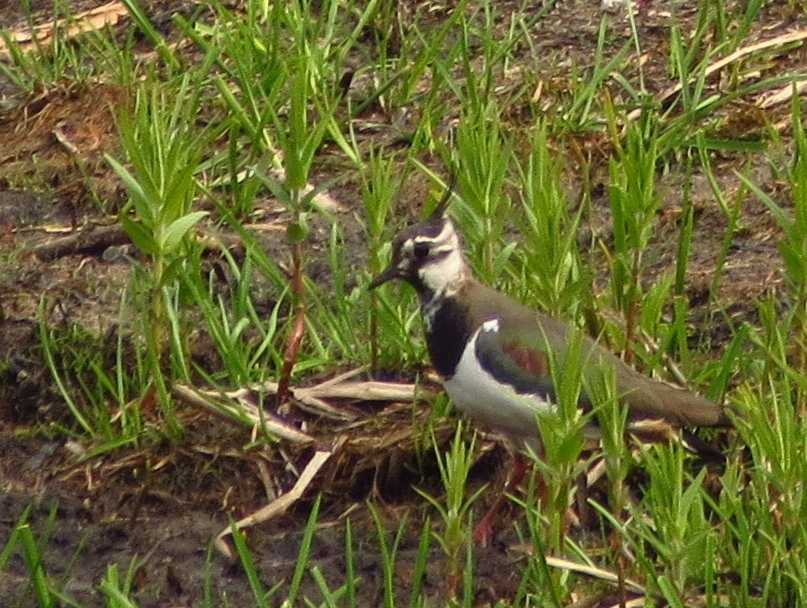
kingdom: Animalia
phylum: Chordata
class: Aves
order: Charadriiformes
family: Charadriidae
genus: Vanellus
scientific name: Vanellus vanellus
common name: Northern lapwing
